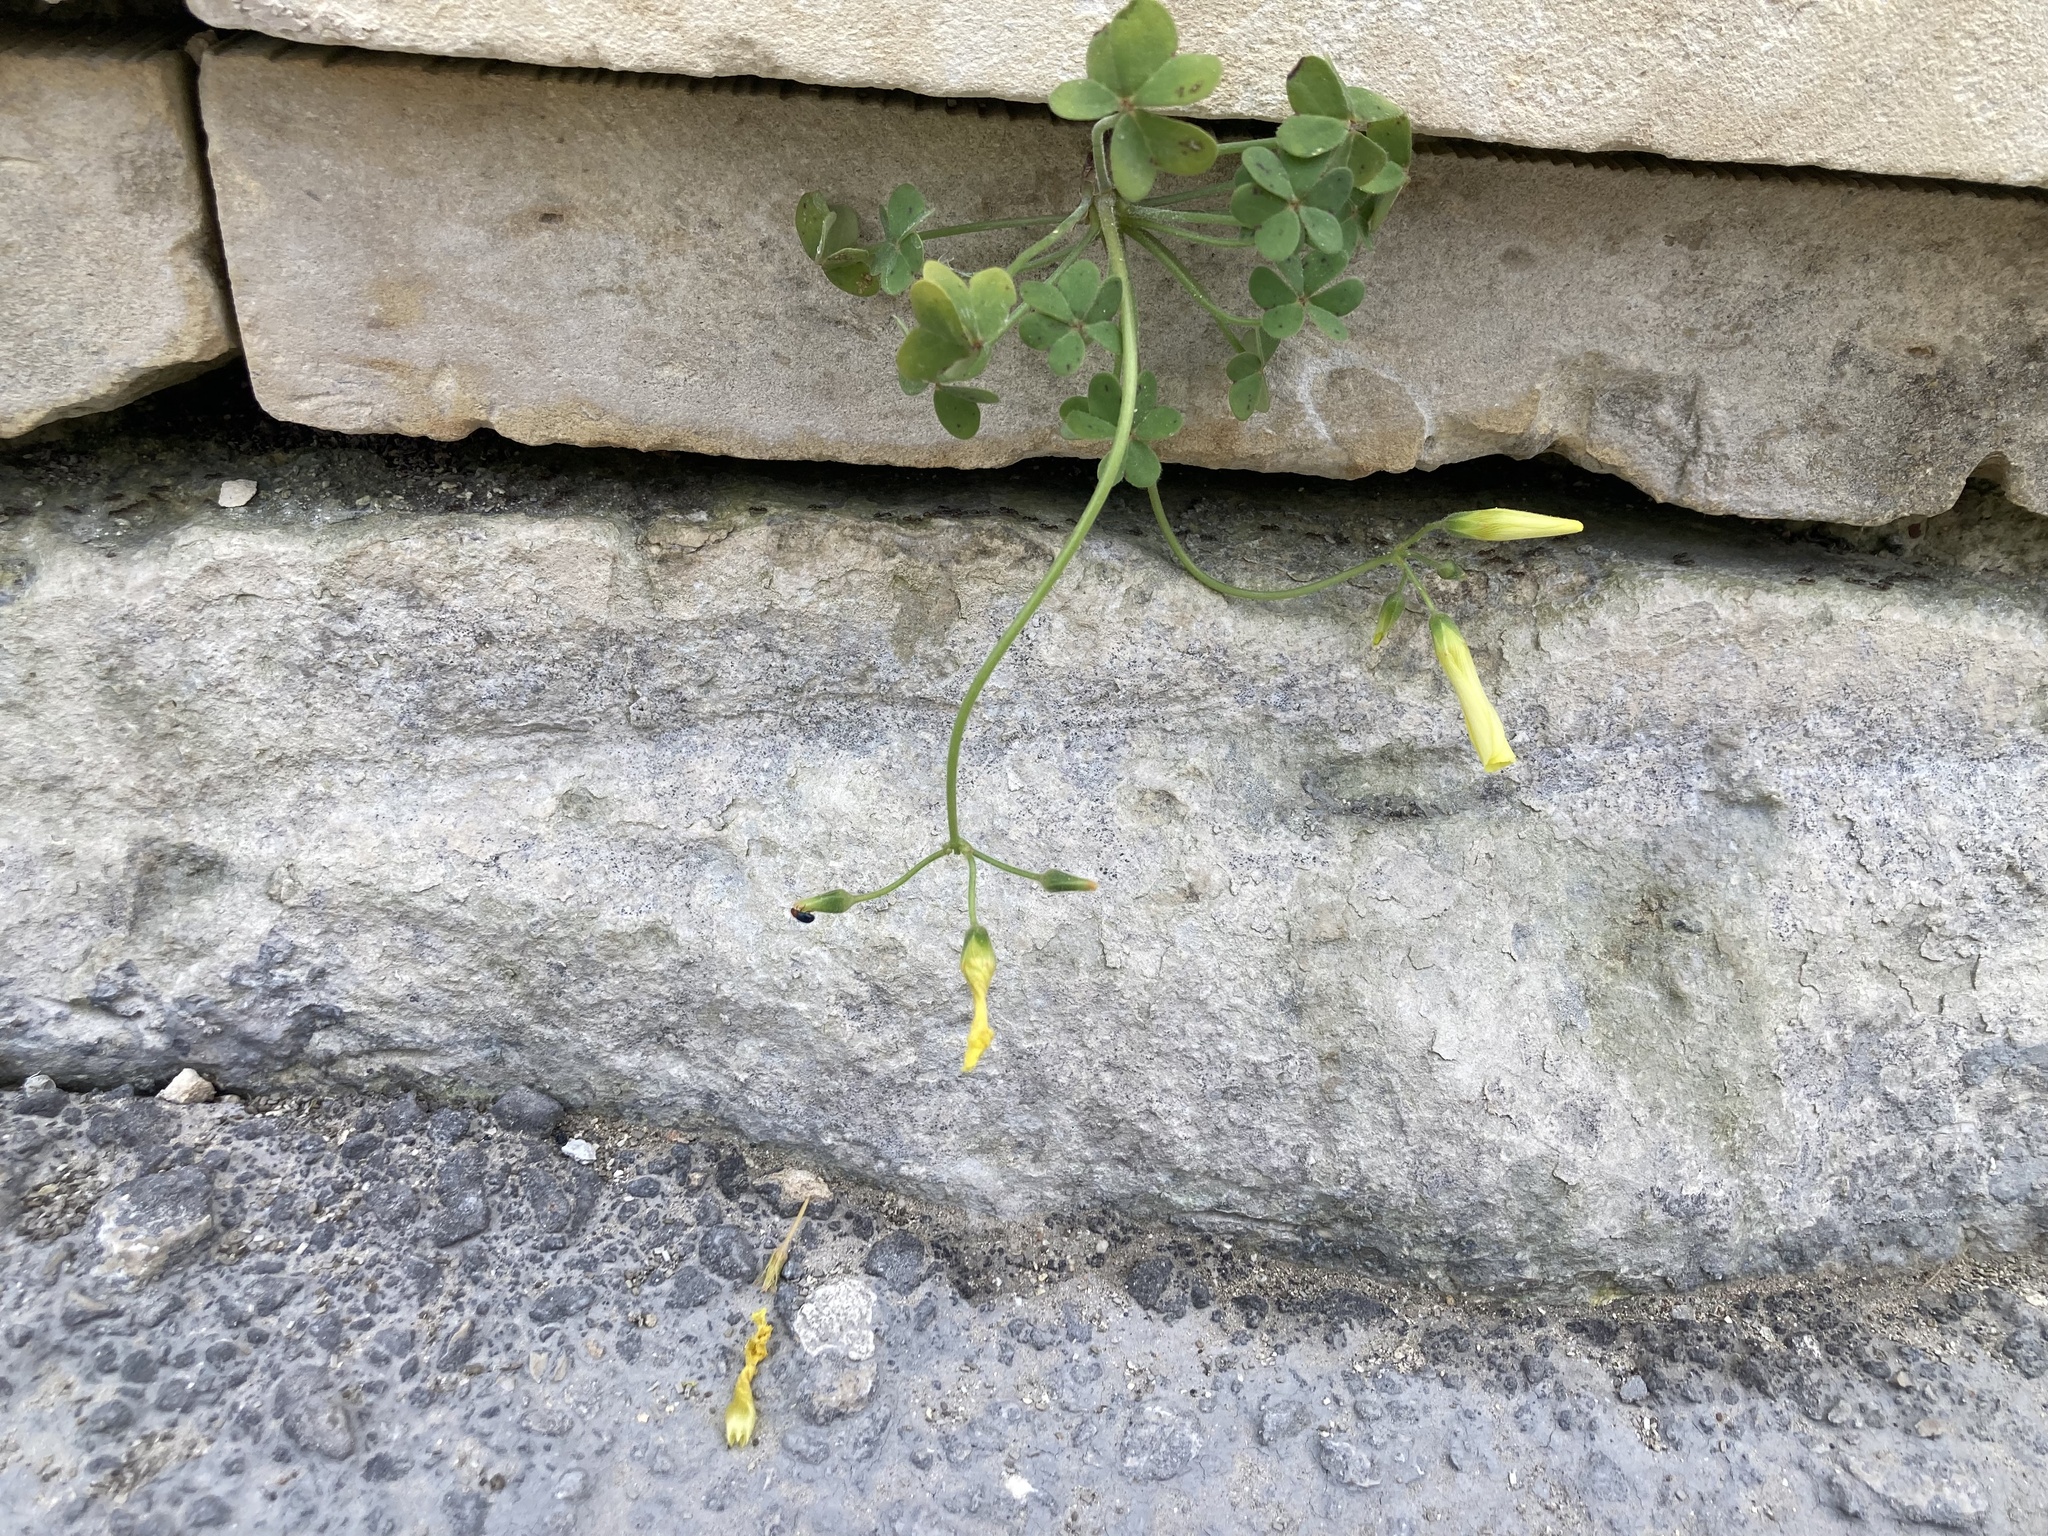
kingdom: Plantae
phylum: Tracheophyta
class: Magnoliopsida
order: Oxalidales
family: Oxalidaceae
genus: Oxalis
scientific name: Oxalis pes-caprae
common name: Bermuda-buttercup
